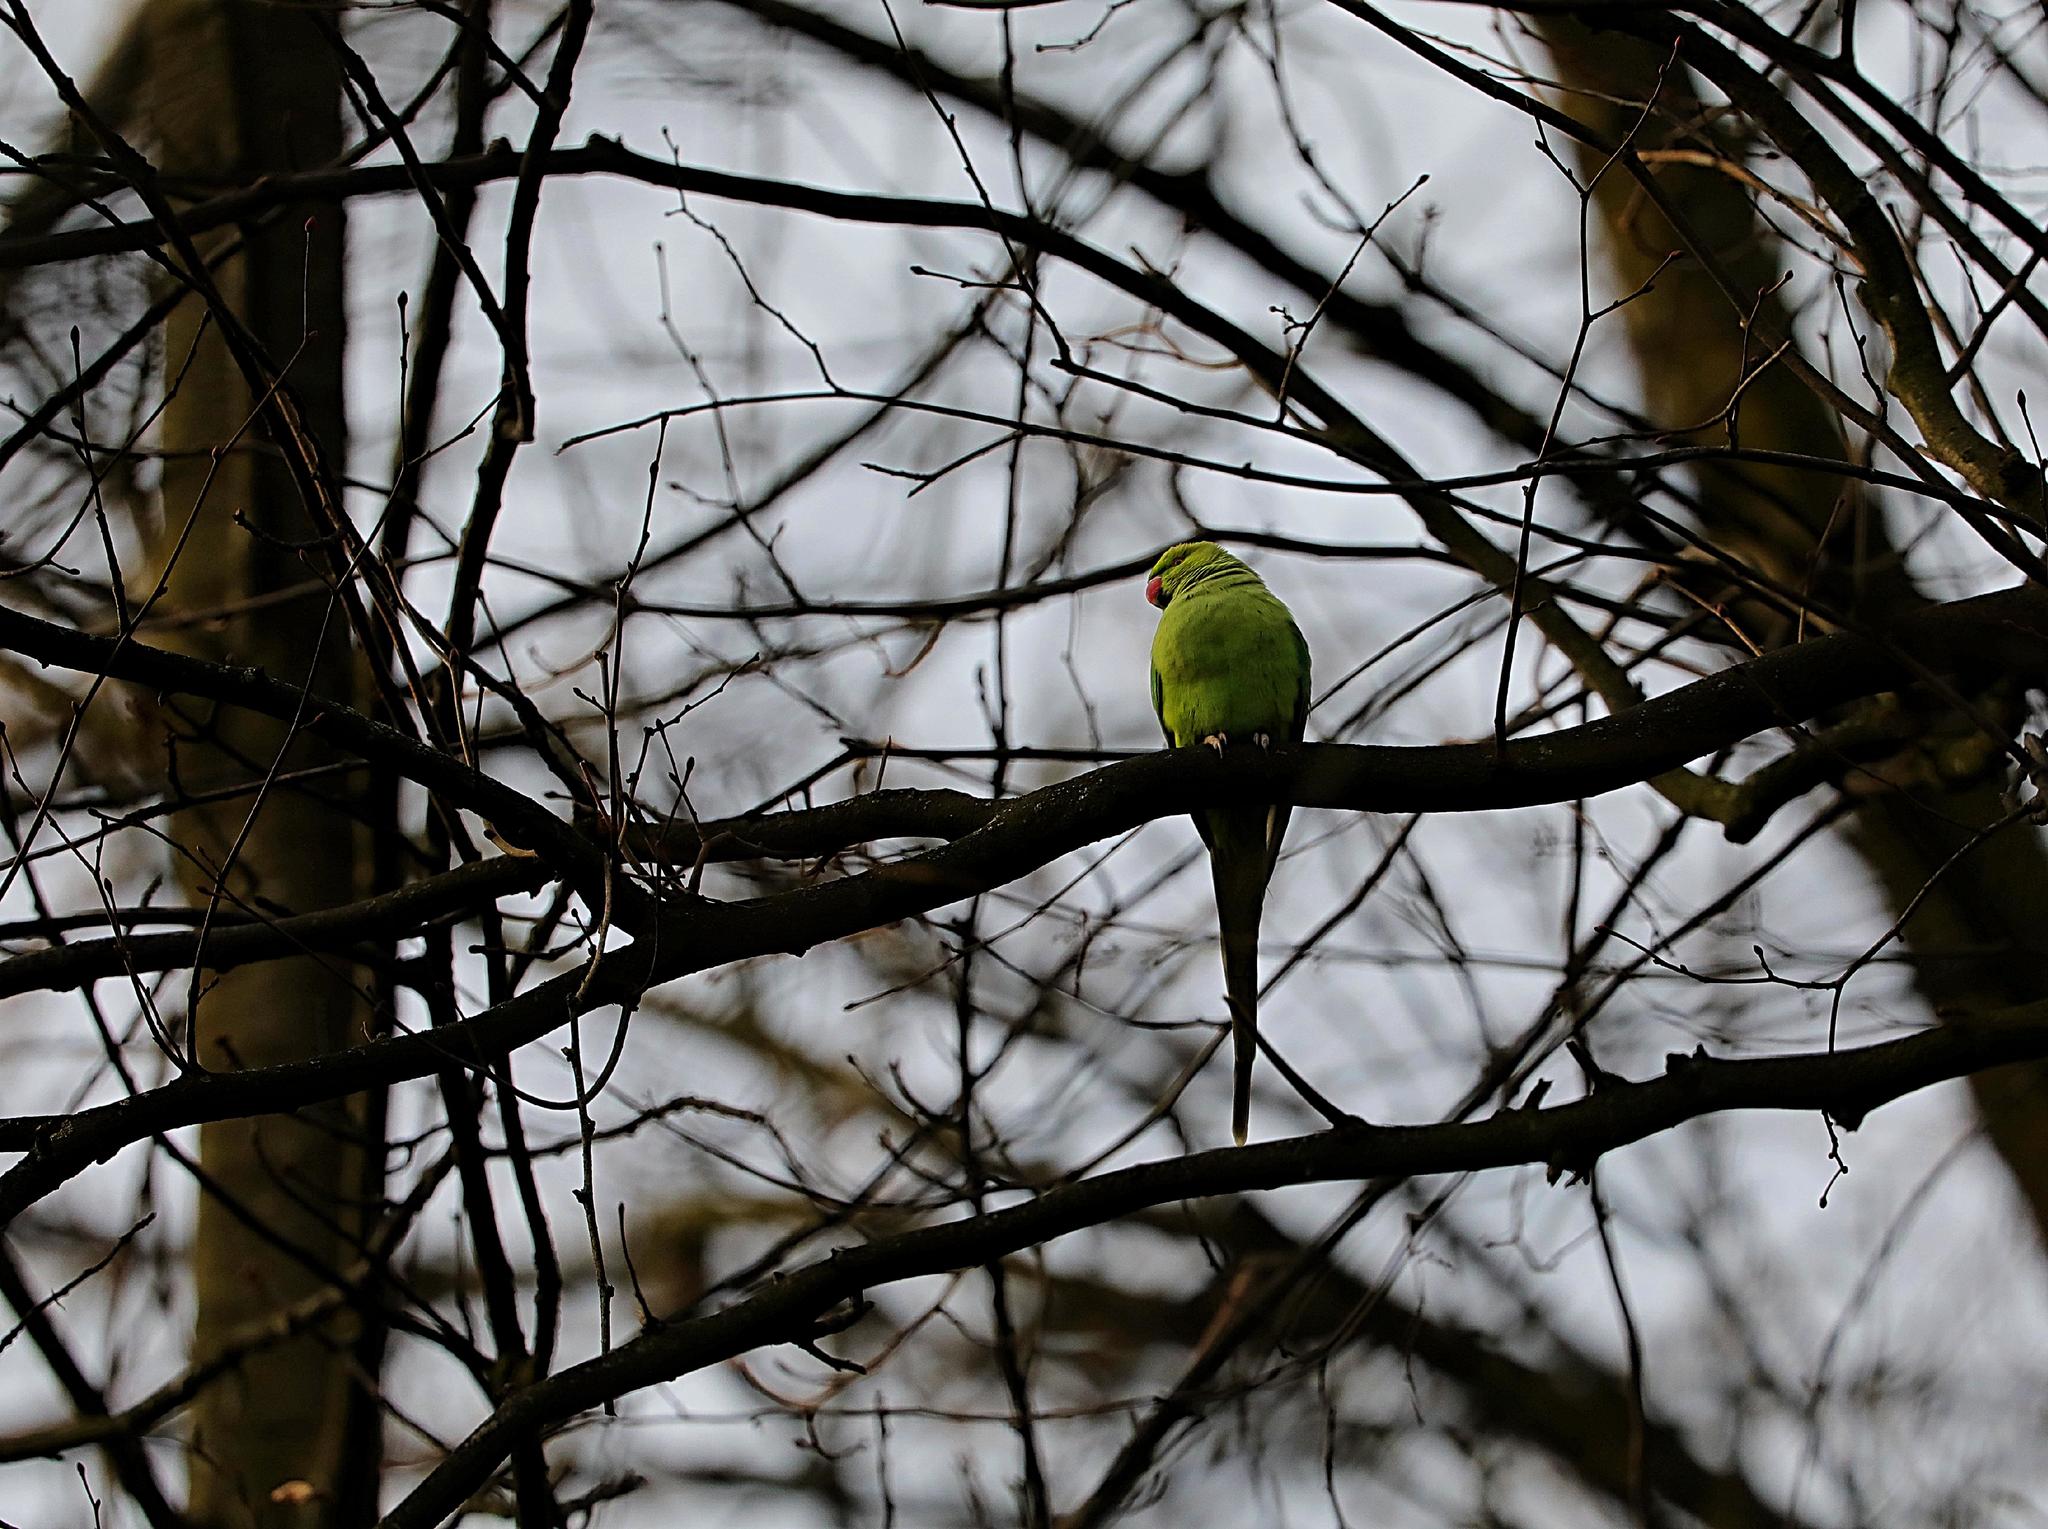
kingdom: Animalia
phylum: Chordata
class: Aves
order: Psittaciformes
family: Psittacidae
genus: Psittacula
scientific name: Psittacula krameri
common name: Rose-ringed parakeet
